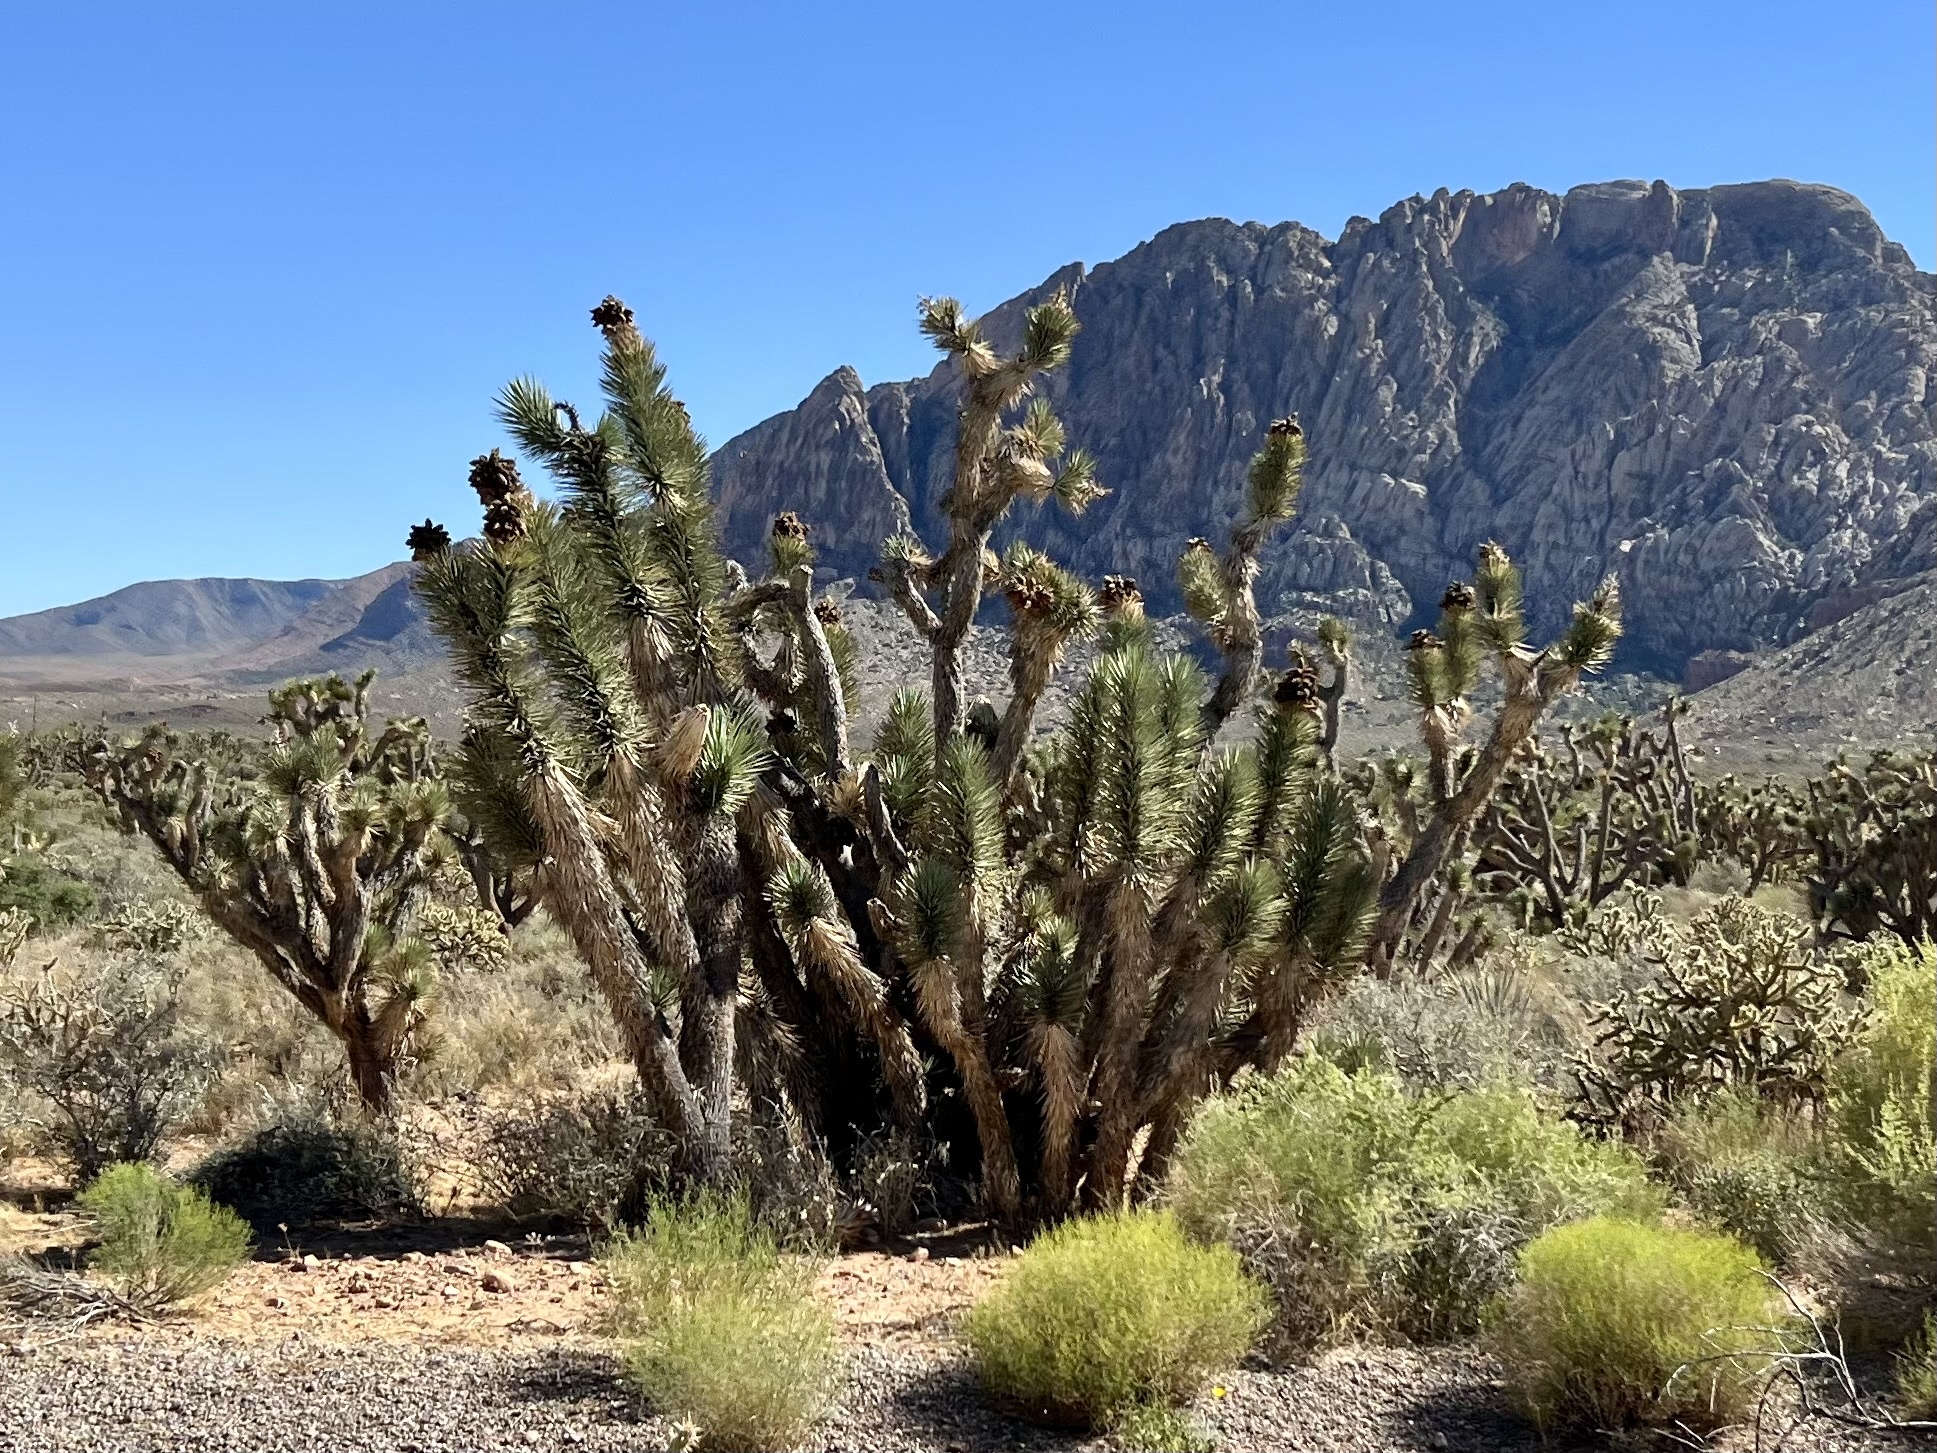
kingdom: Plantae
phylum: Tracheophyta
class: Liliopsida
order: Asparagales
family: Asparagaceae
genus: Yucca
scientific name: Yucca brevifolia
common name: Joshua tree
